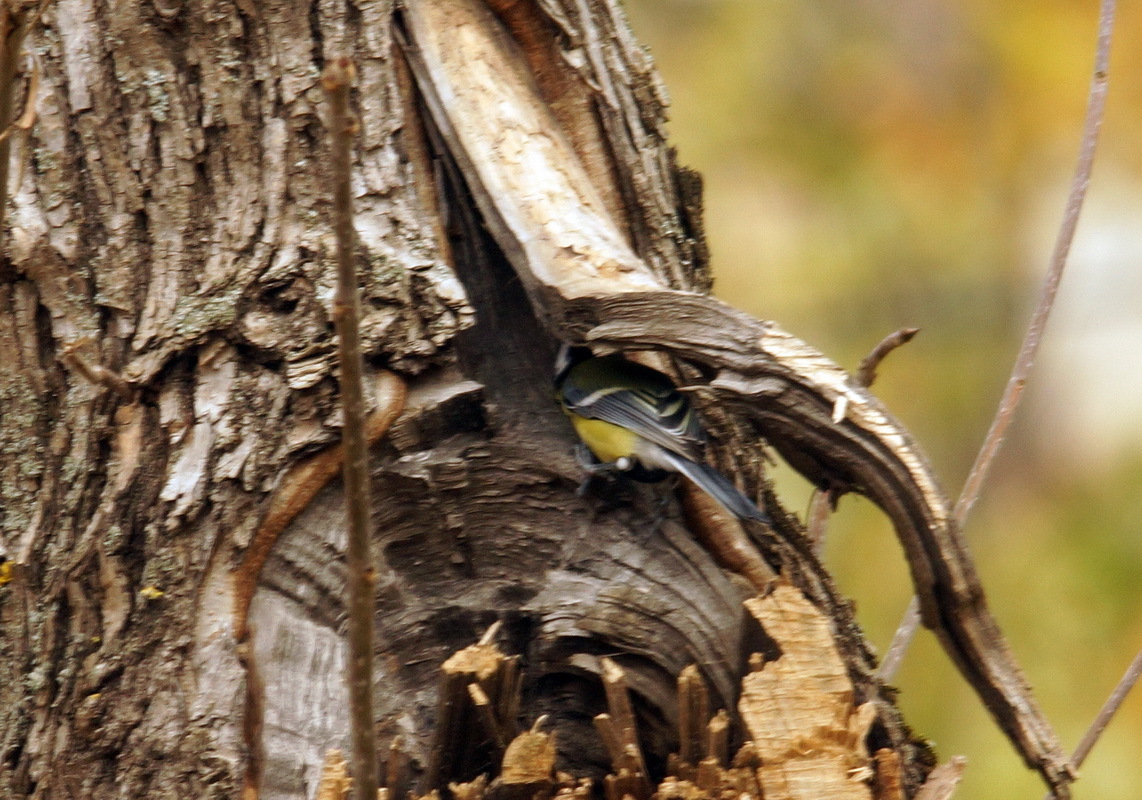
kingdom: Animalia
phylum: Chordata
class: Aves
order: Passeriformes
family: Paridae
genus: Parus
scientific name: Parus major
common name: Great tit
